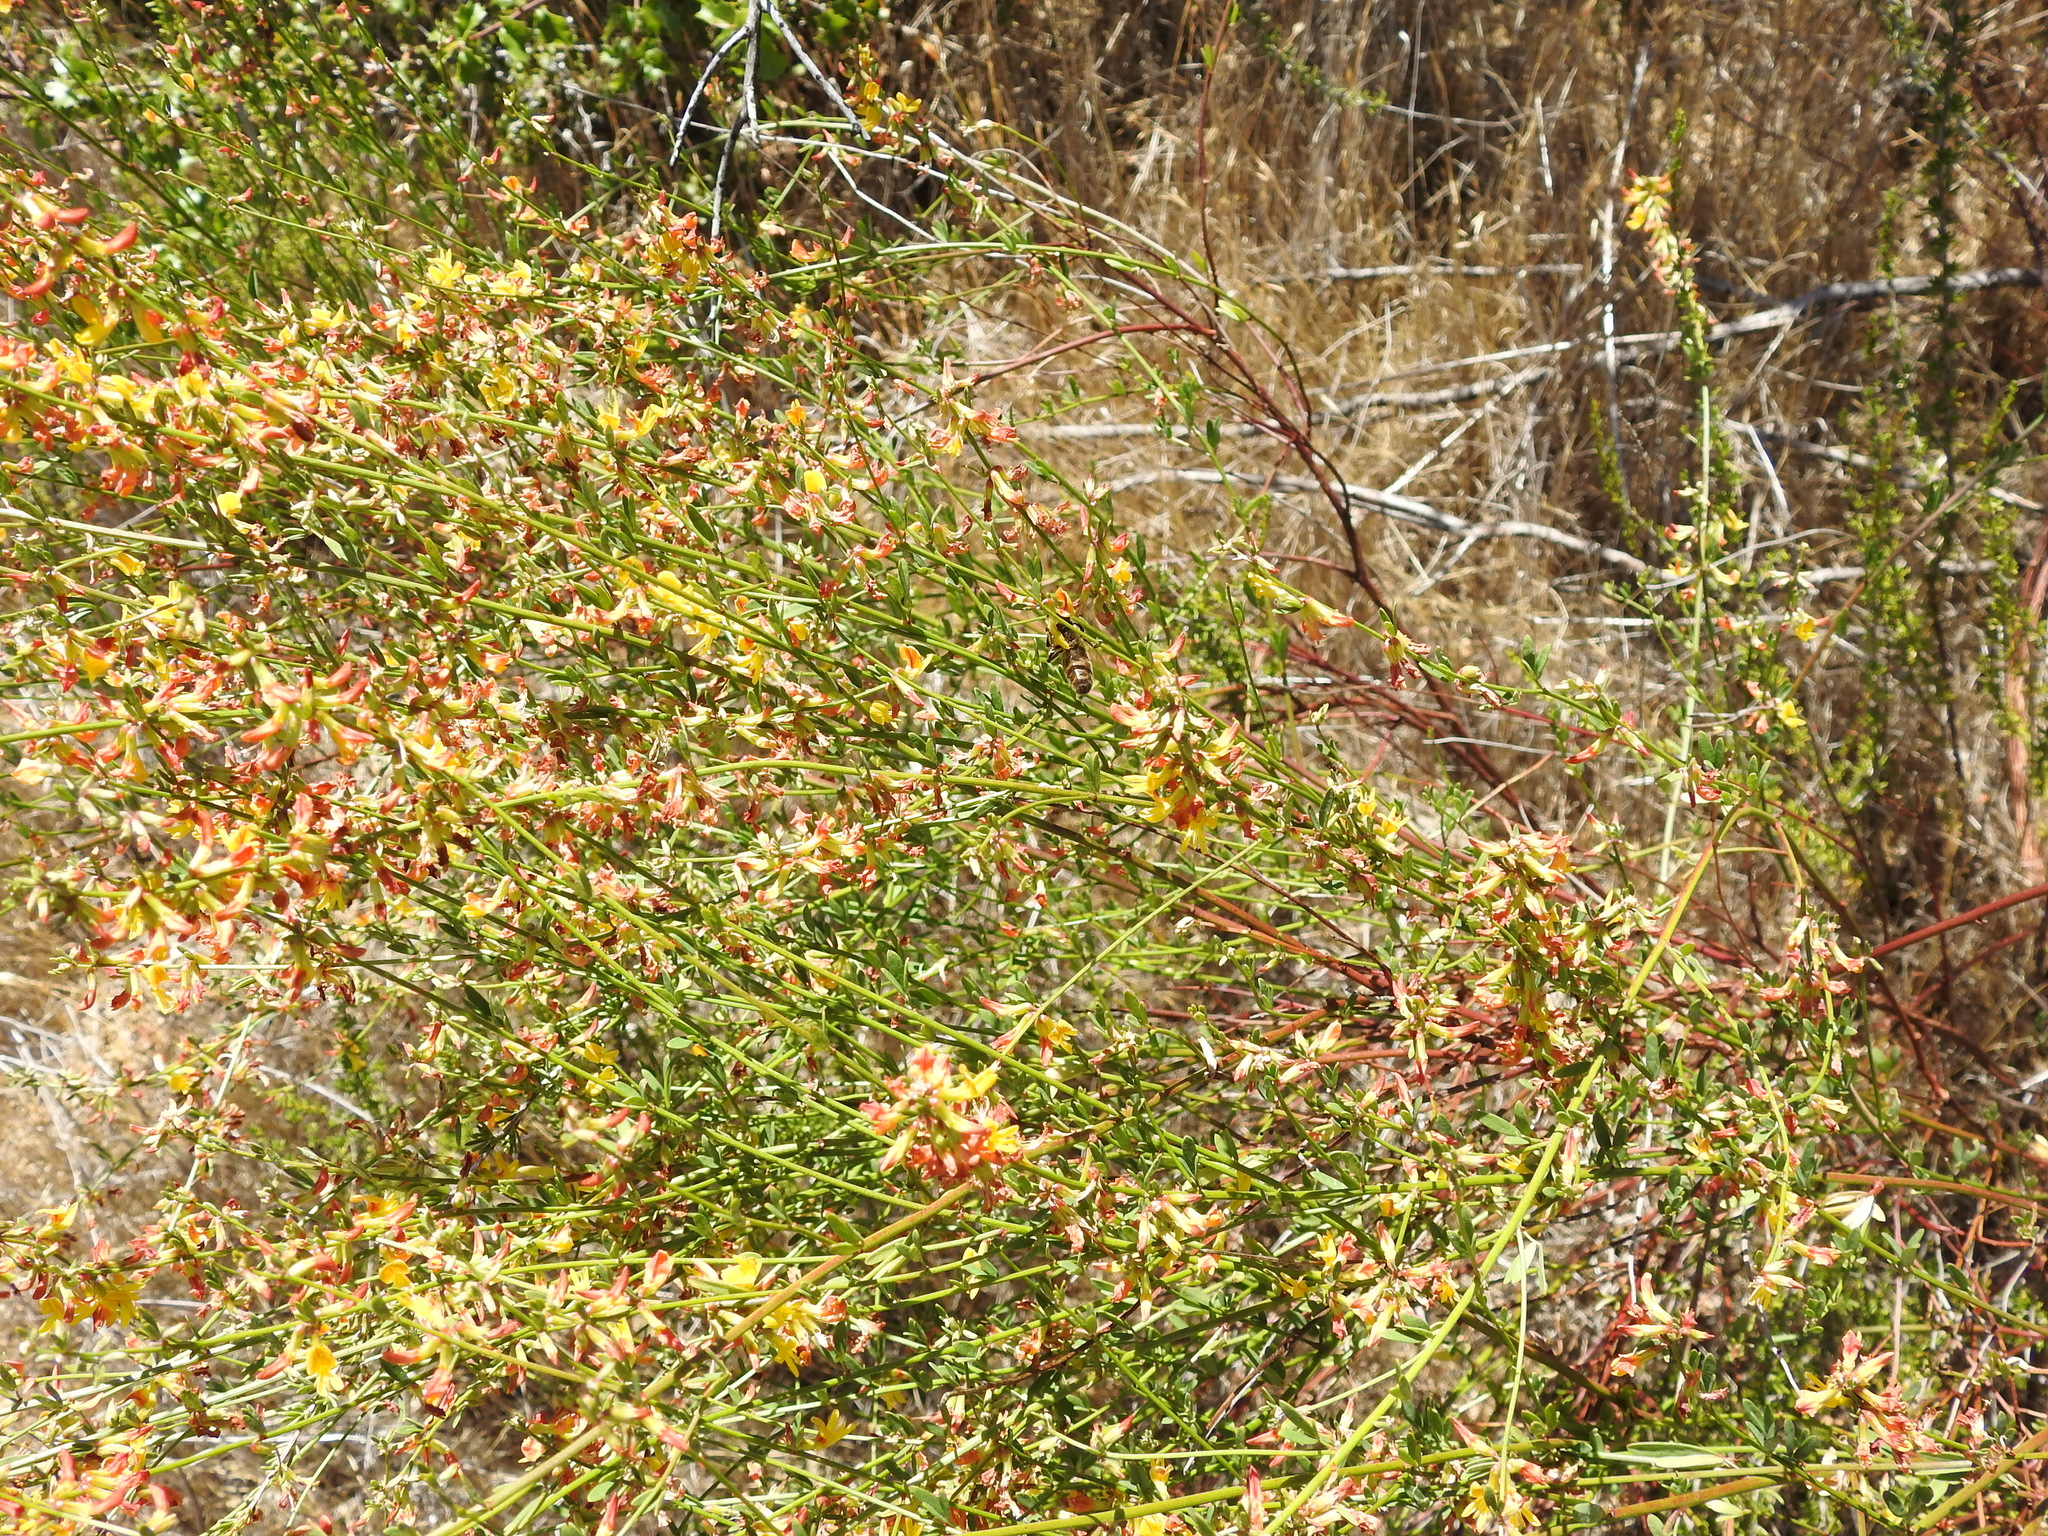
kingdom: Plantae
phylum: Tracheophyta
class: Magnoliopsida
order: Fabales
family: Fabaceae
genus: Acmispon
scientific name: Acmispon glaber
